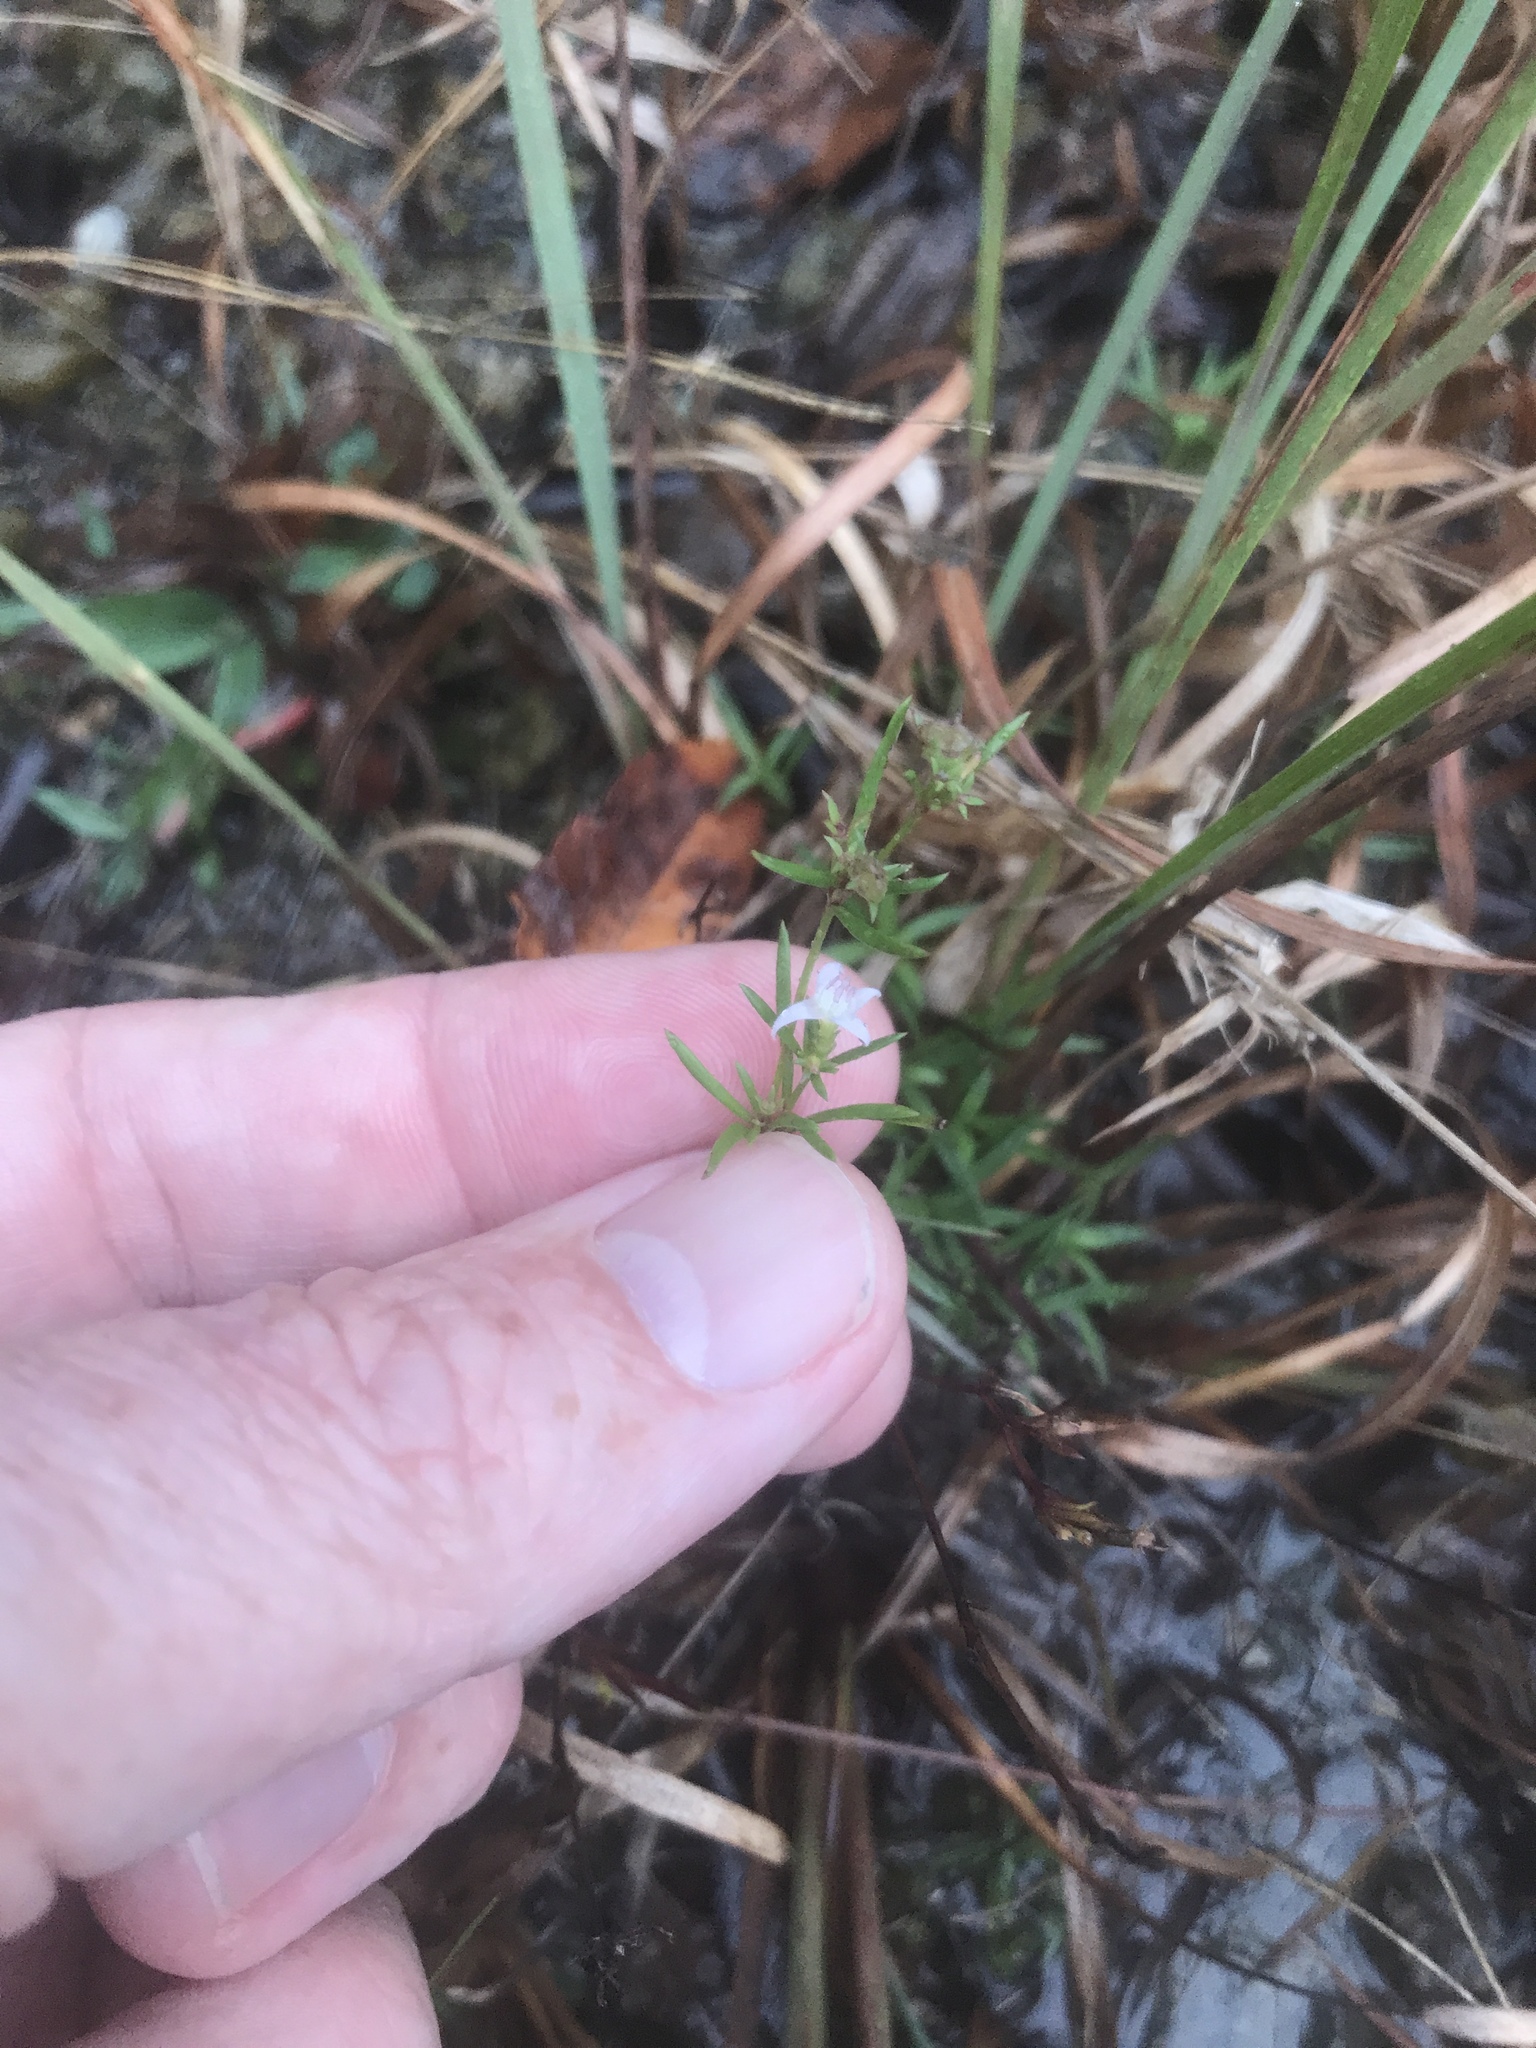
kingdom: Plantae
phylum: Tracheophyta
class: Magnoliopsida
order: Gentianales
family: Rubiaceae
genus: Stenaria
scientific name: Stenaria nigricans
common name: Diamondflowers
